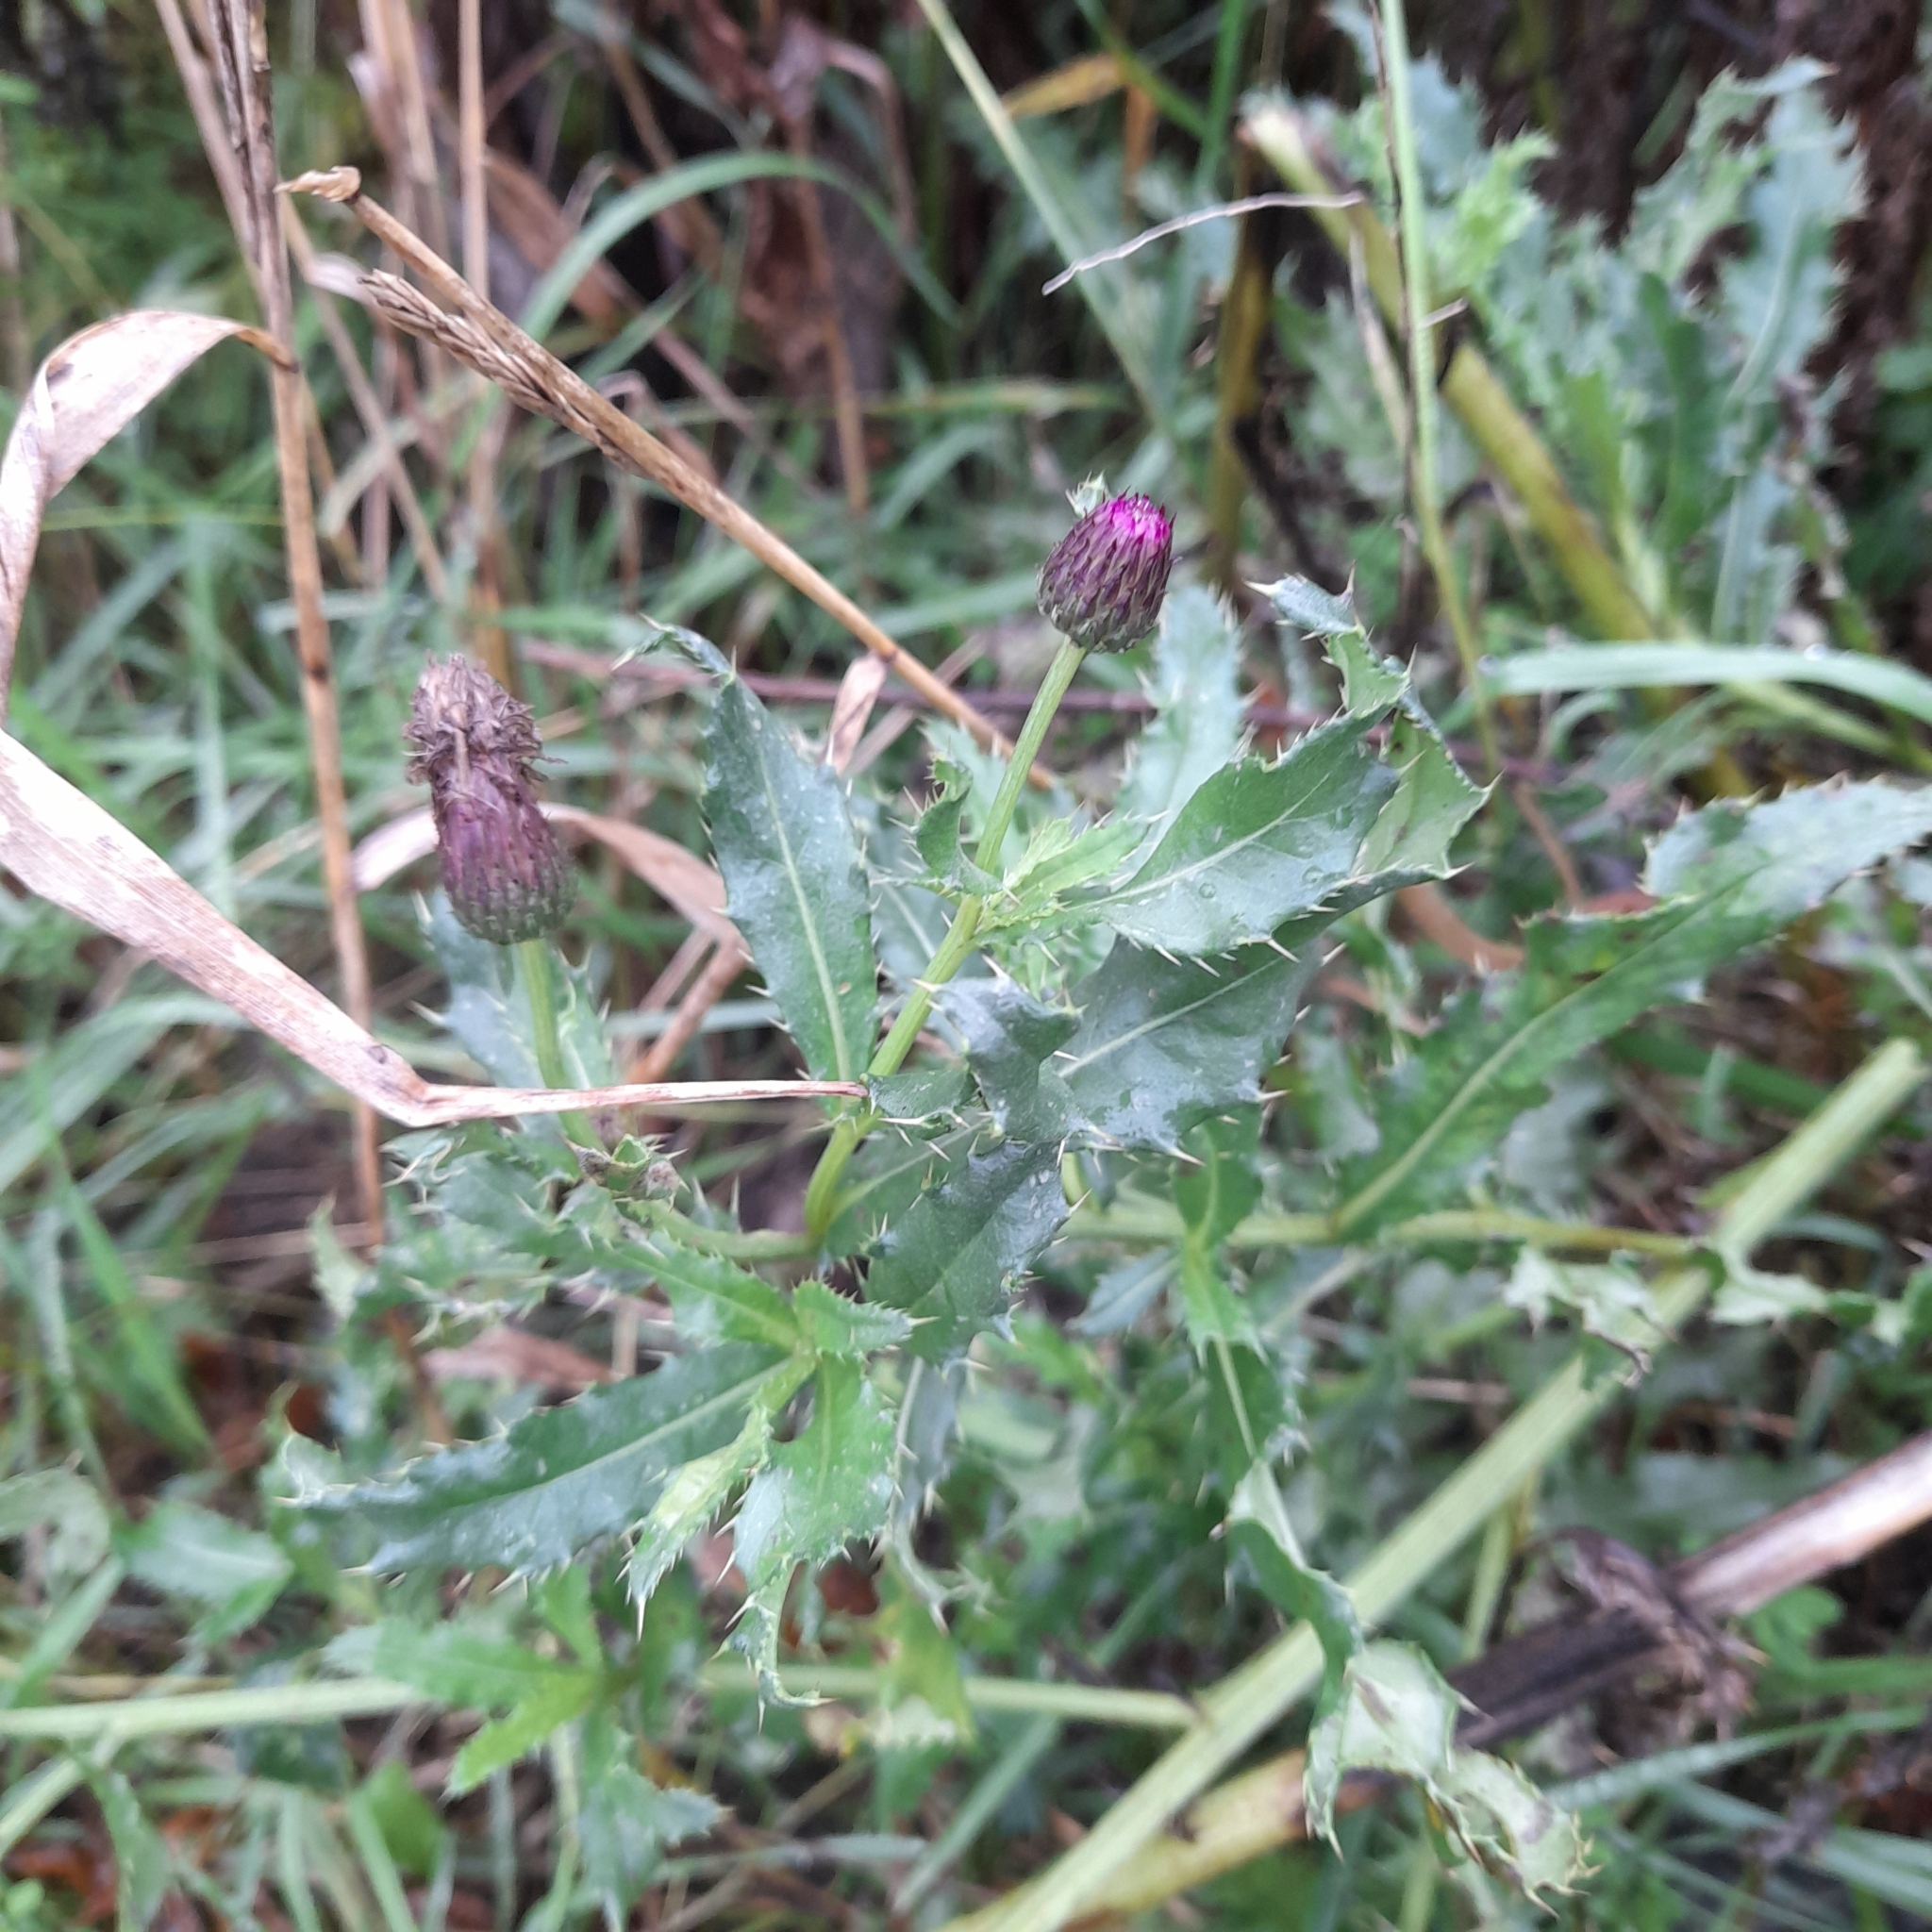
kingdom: Plantae
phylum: Tracheophyta
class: Magnoliopsida
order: Asterales
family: Asteraceae
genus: Cirsium
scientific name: Cirsium arvense
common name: Creeping thistle
